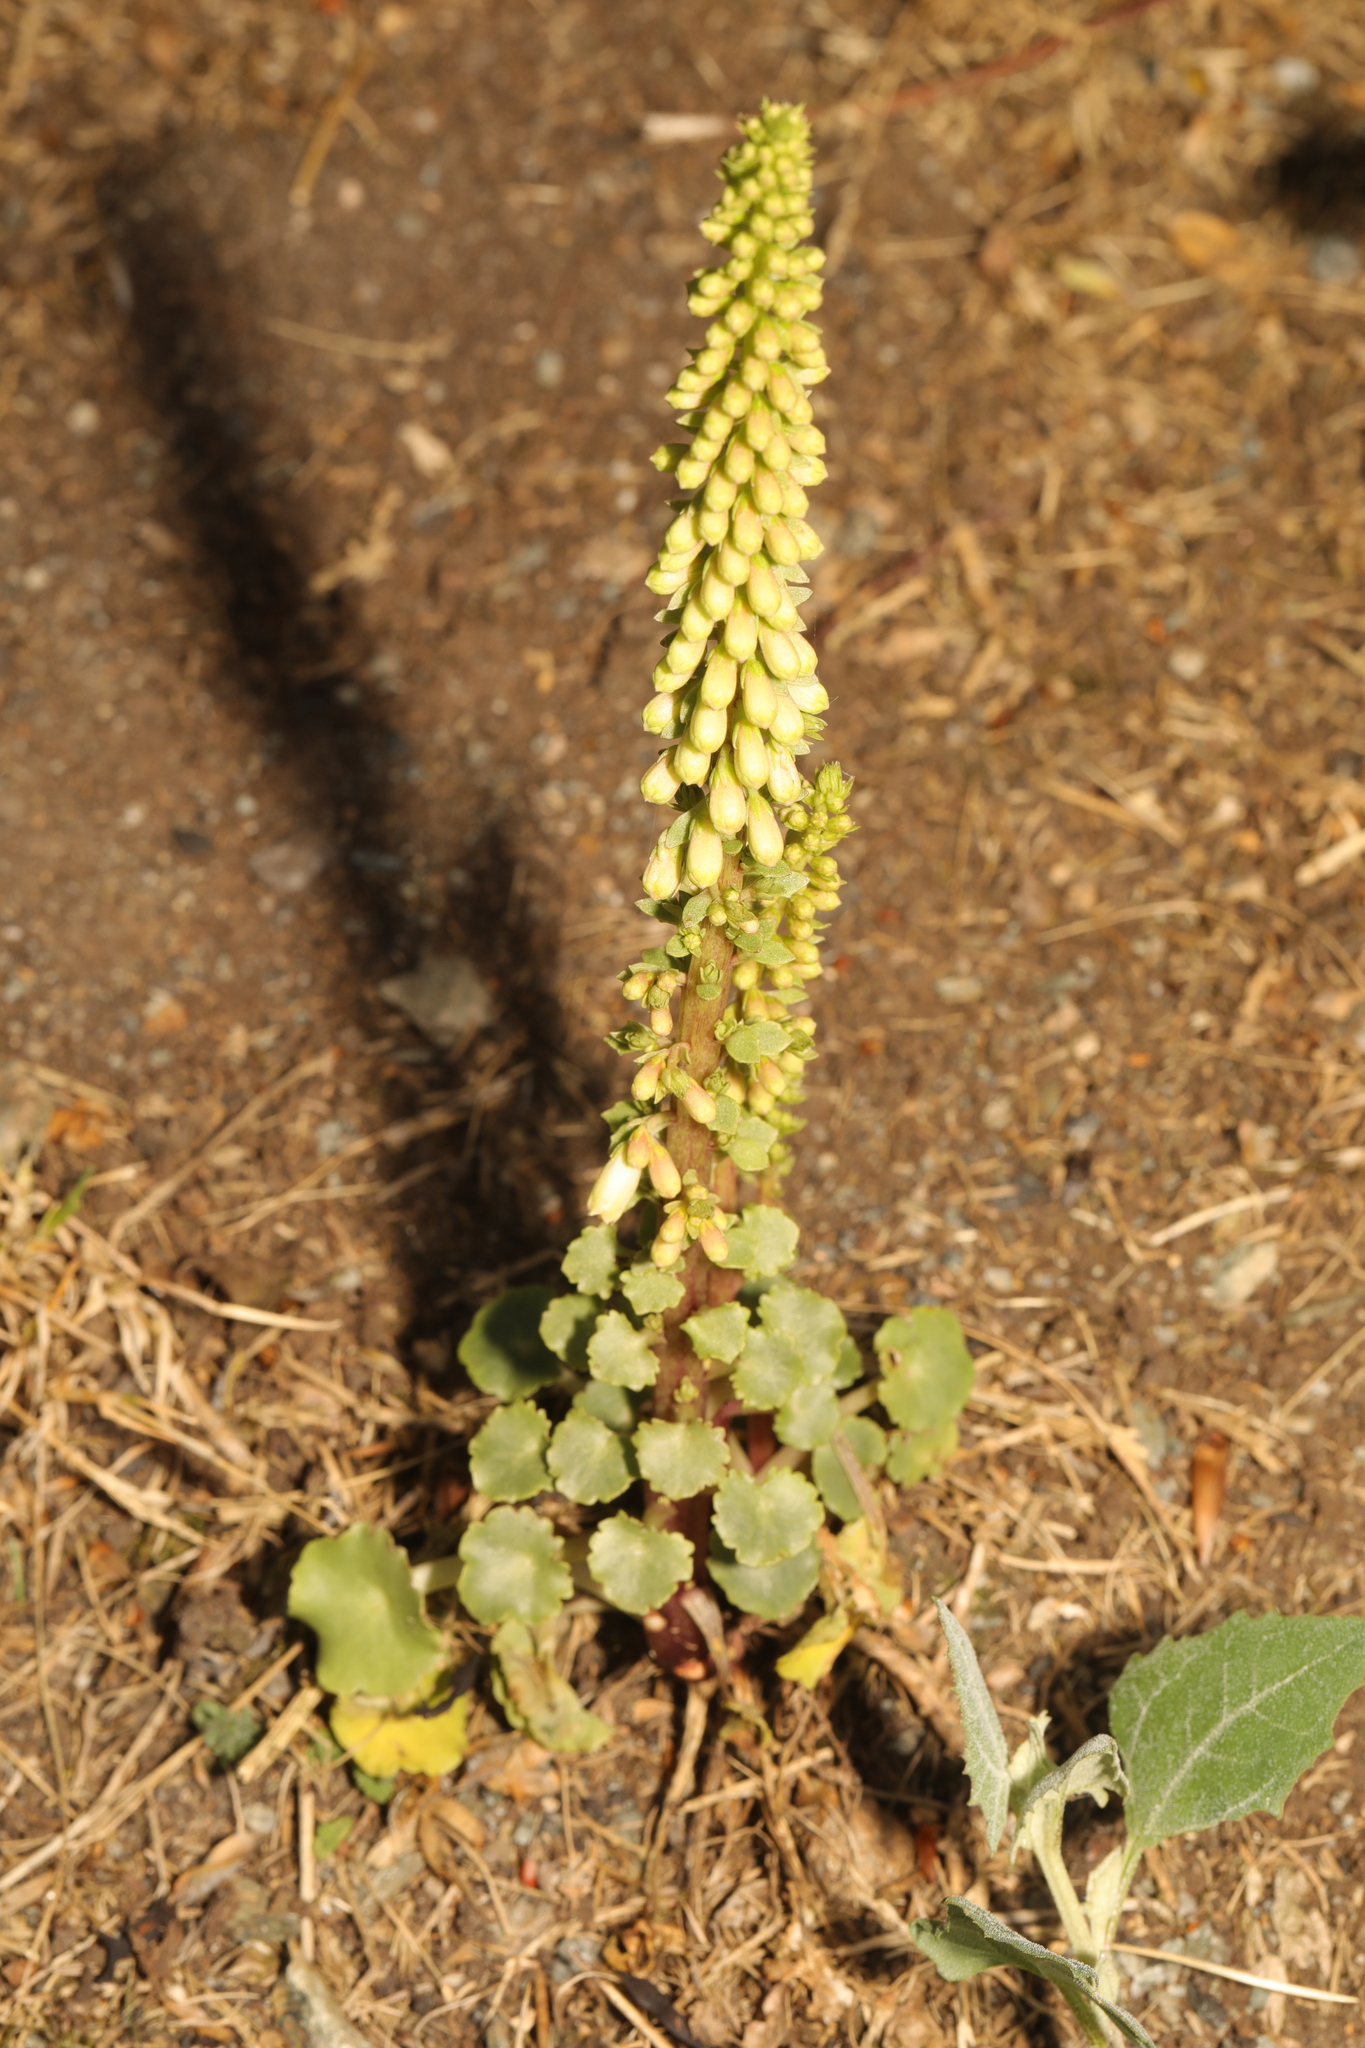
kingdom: Plantae
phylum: Tracheophyta
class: Magnoliopsida
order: Saxifragales
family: Crassulaceae
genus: Umbilicus
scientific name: Umbilicus rupestris
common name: Navelwort
